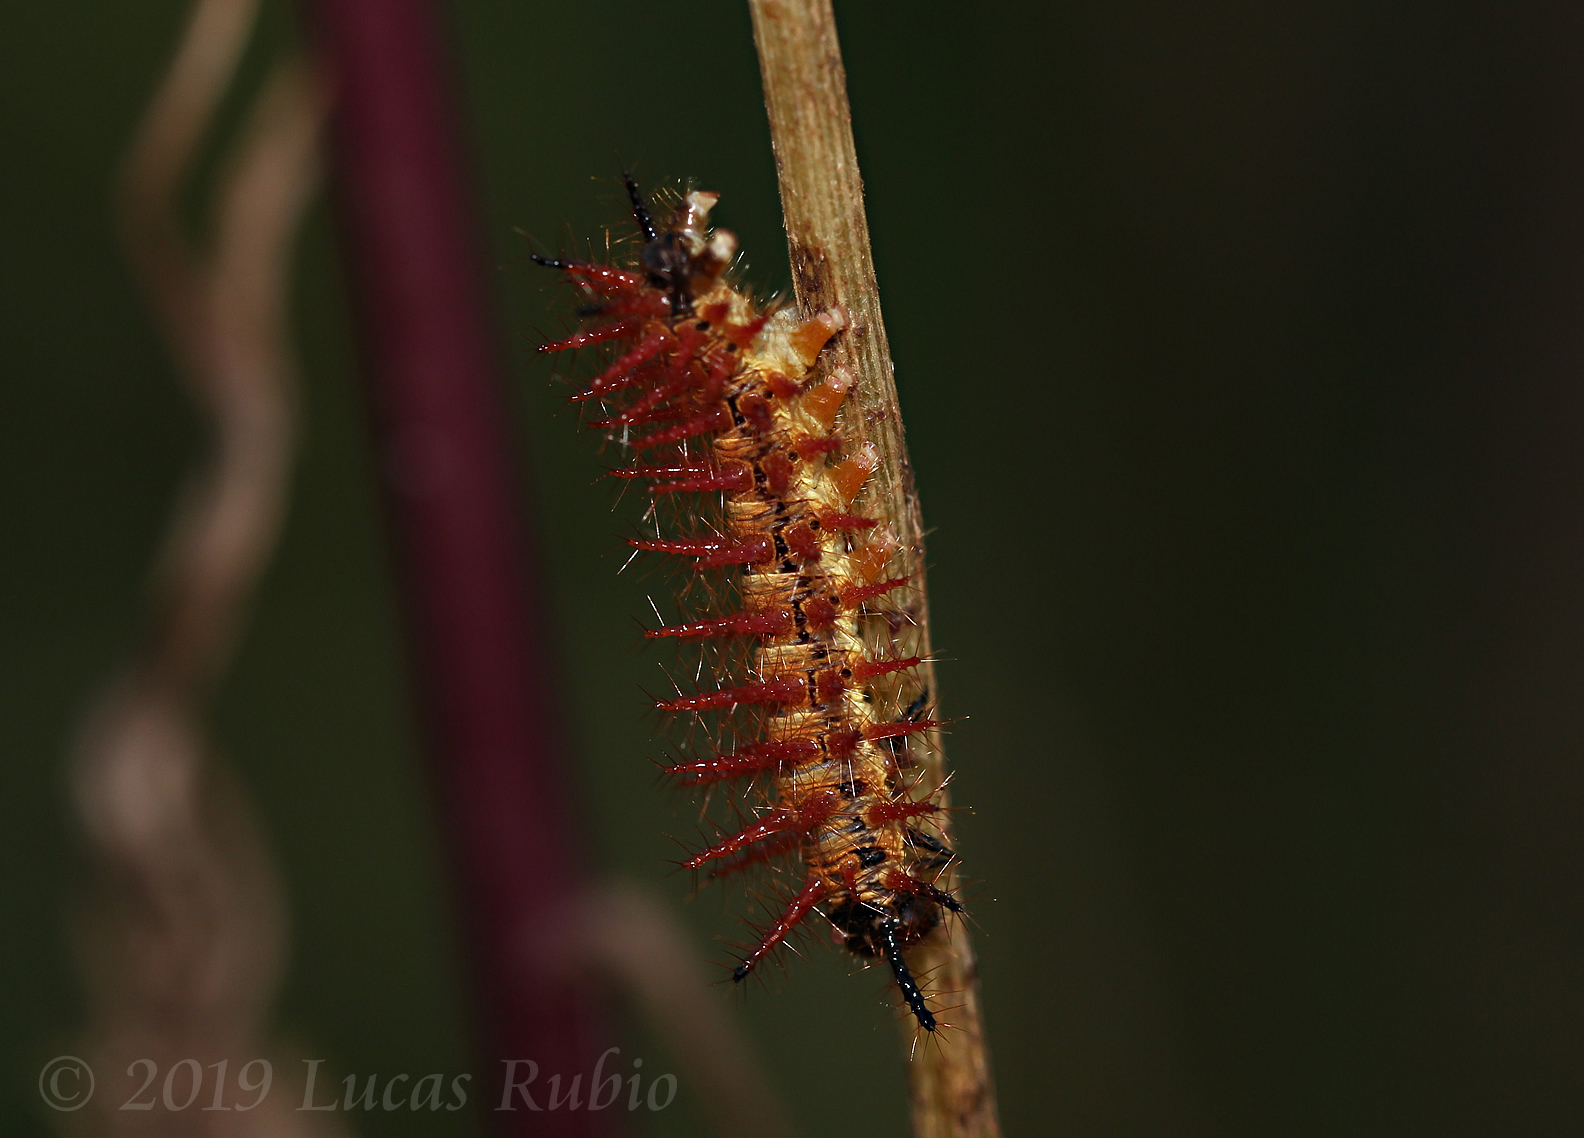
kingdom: Animalia
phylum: Arthropoda
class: Insecta
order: Lepidoptera
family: Nymphalidae
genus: Acraea
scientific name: Acraea momina
